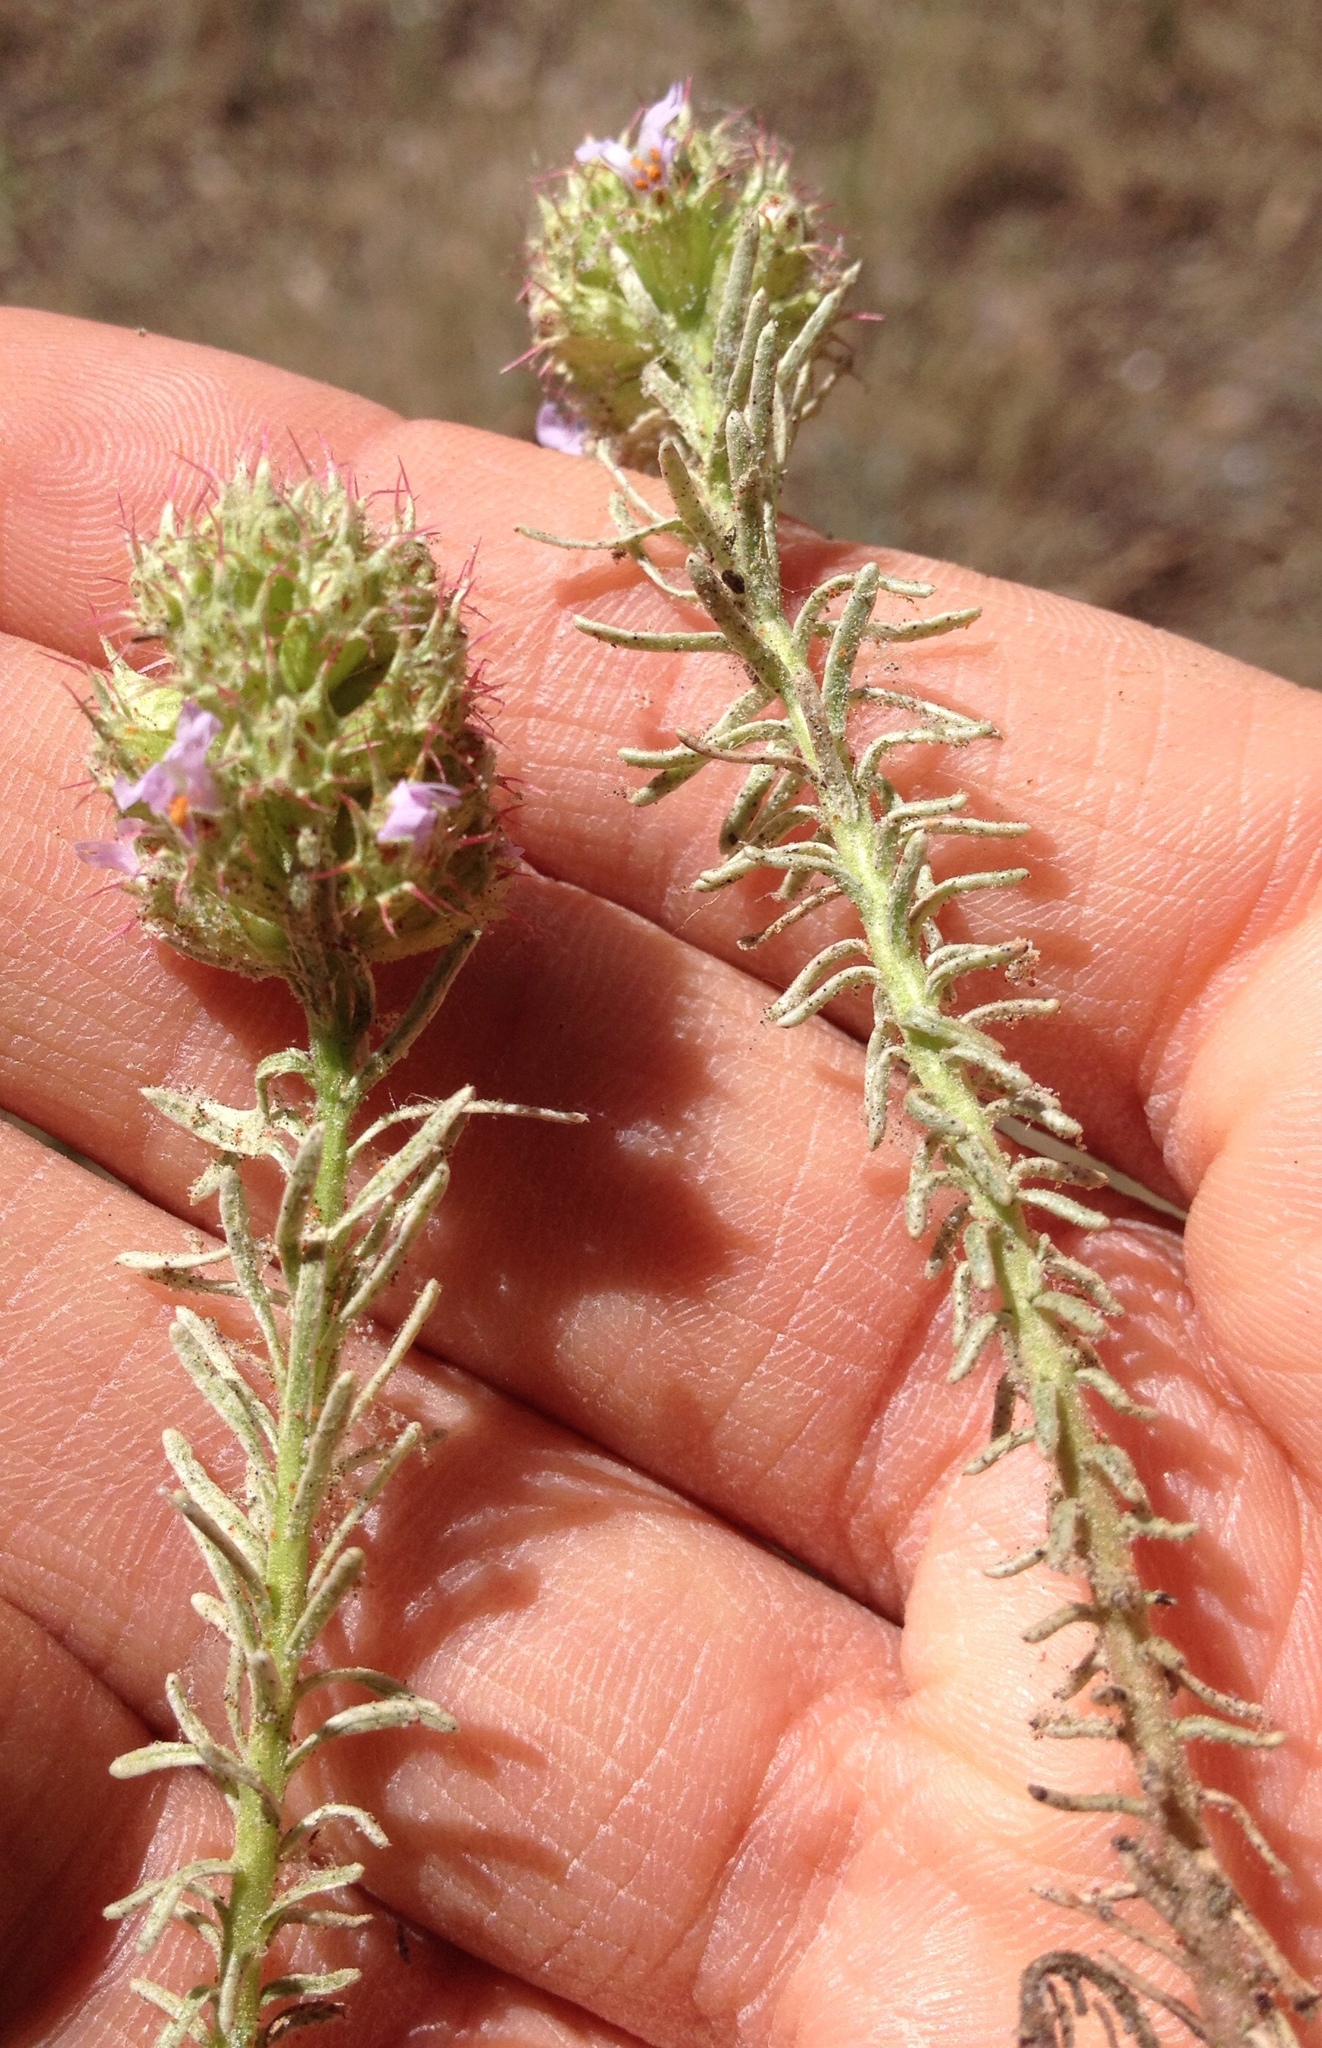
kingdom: Plantae
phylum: Tracheophyta
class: Magnoliopsida
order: Ericales
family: Primulaceae
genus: Coris
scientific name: Coris monspeliensis
